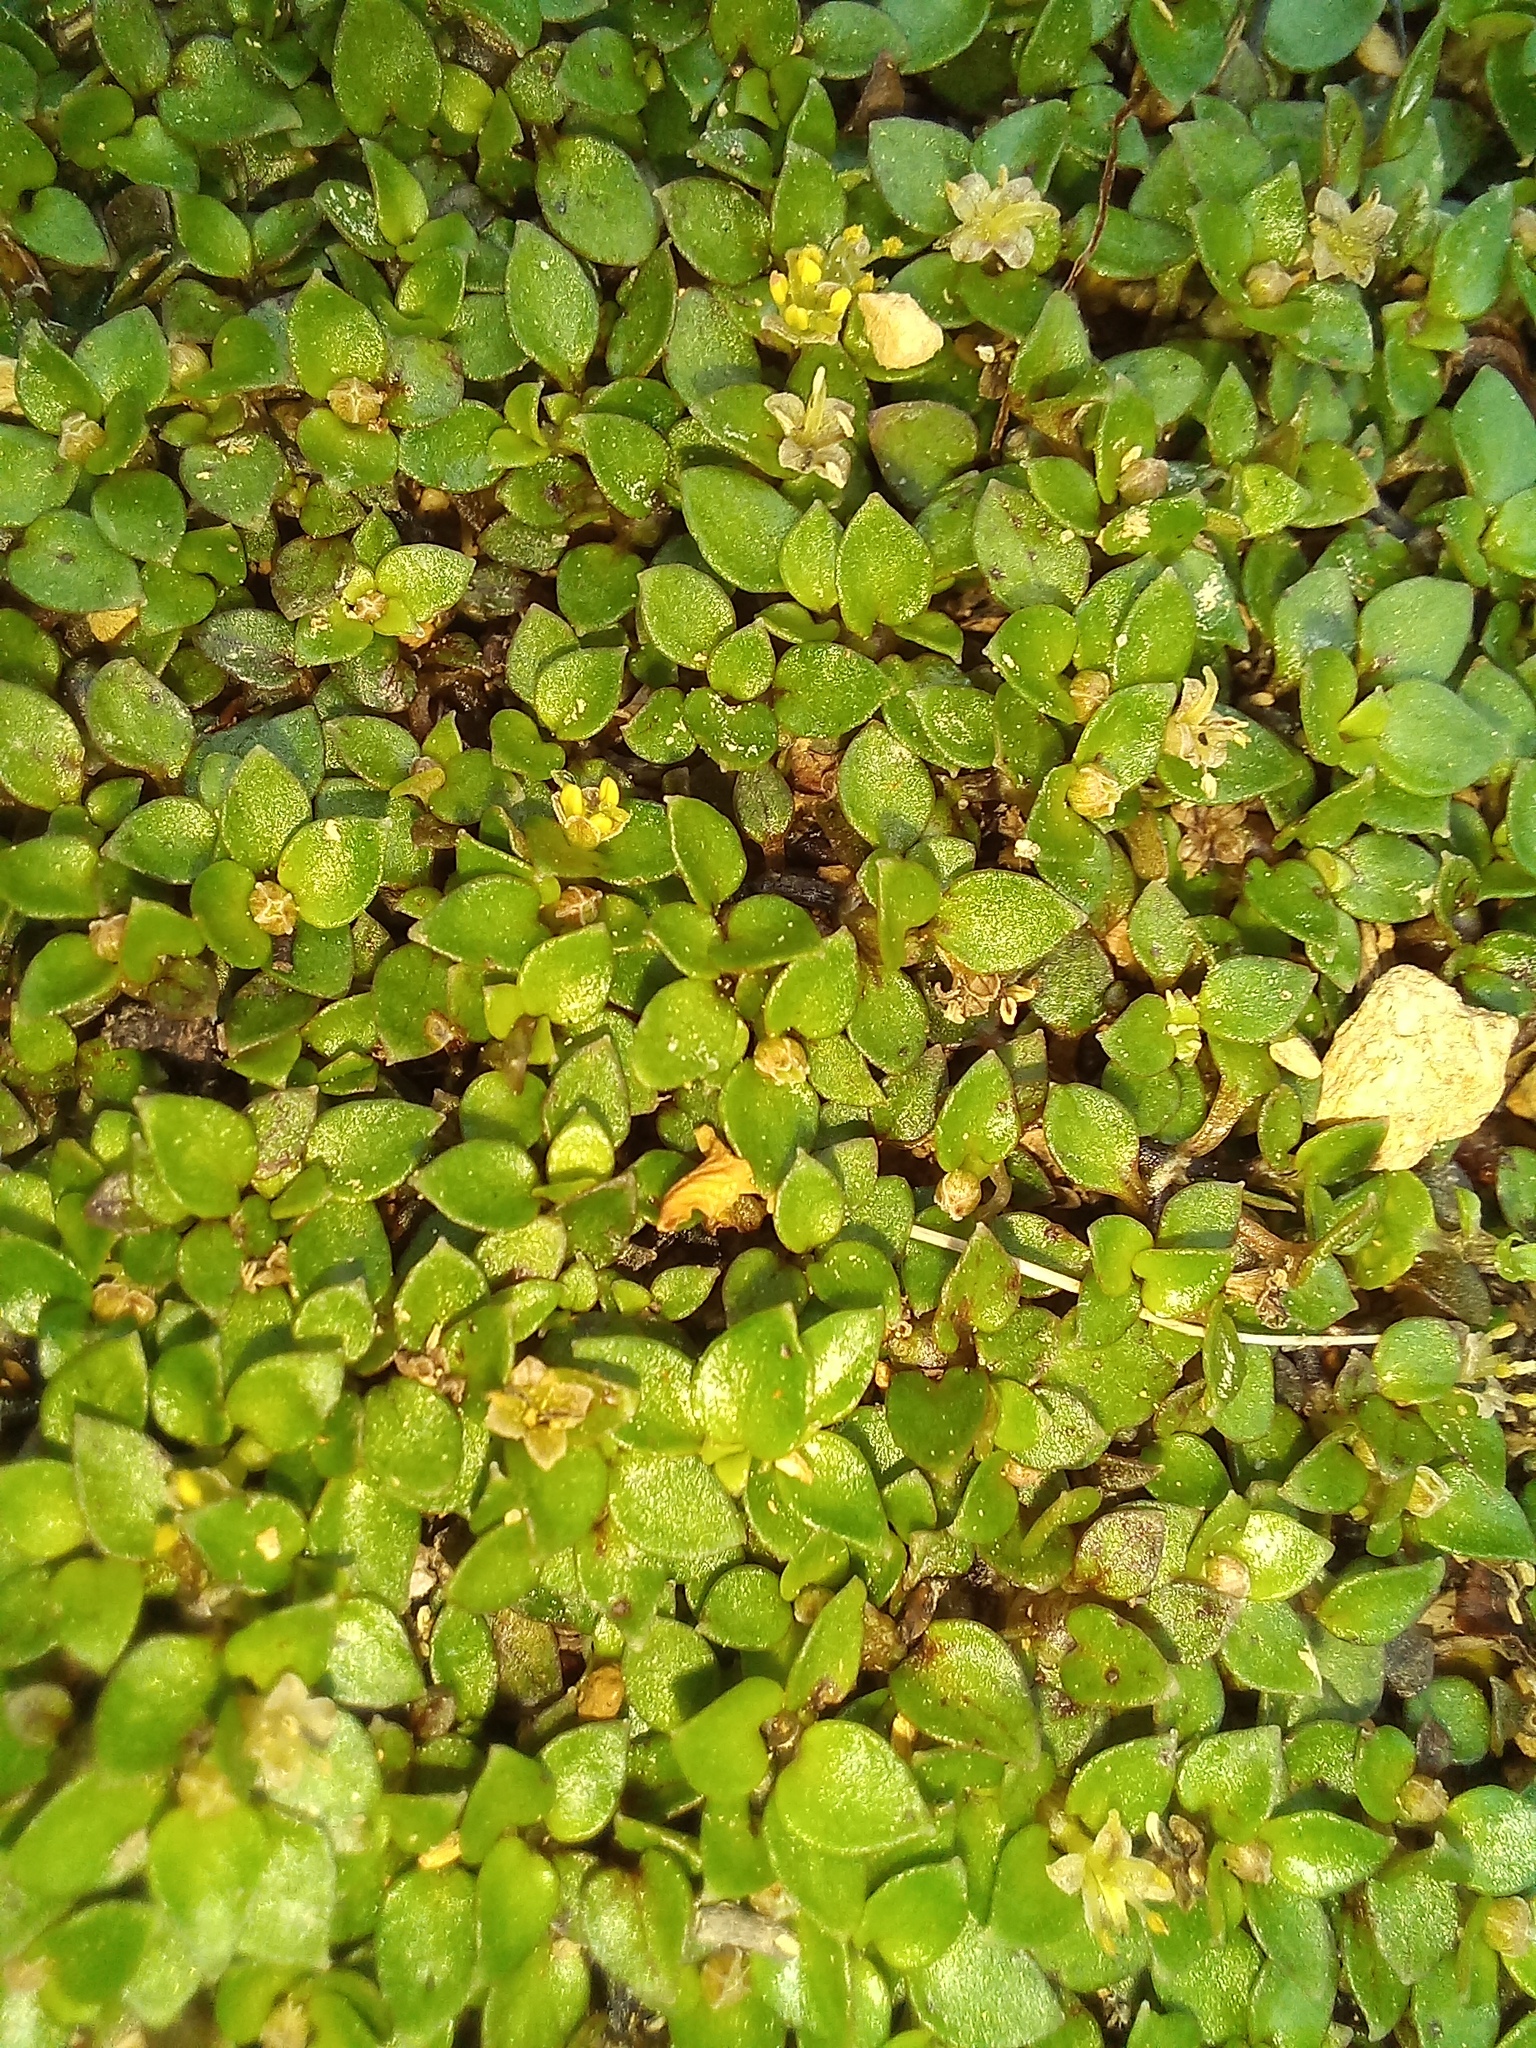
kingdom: Plantae
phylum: Tracheophyta
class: Magnoliopsida
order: Gentianales
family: Rubiaceae
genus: Nertera
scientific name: Nertera granadensis
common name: Beadplant
